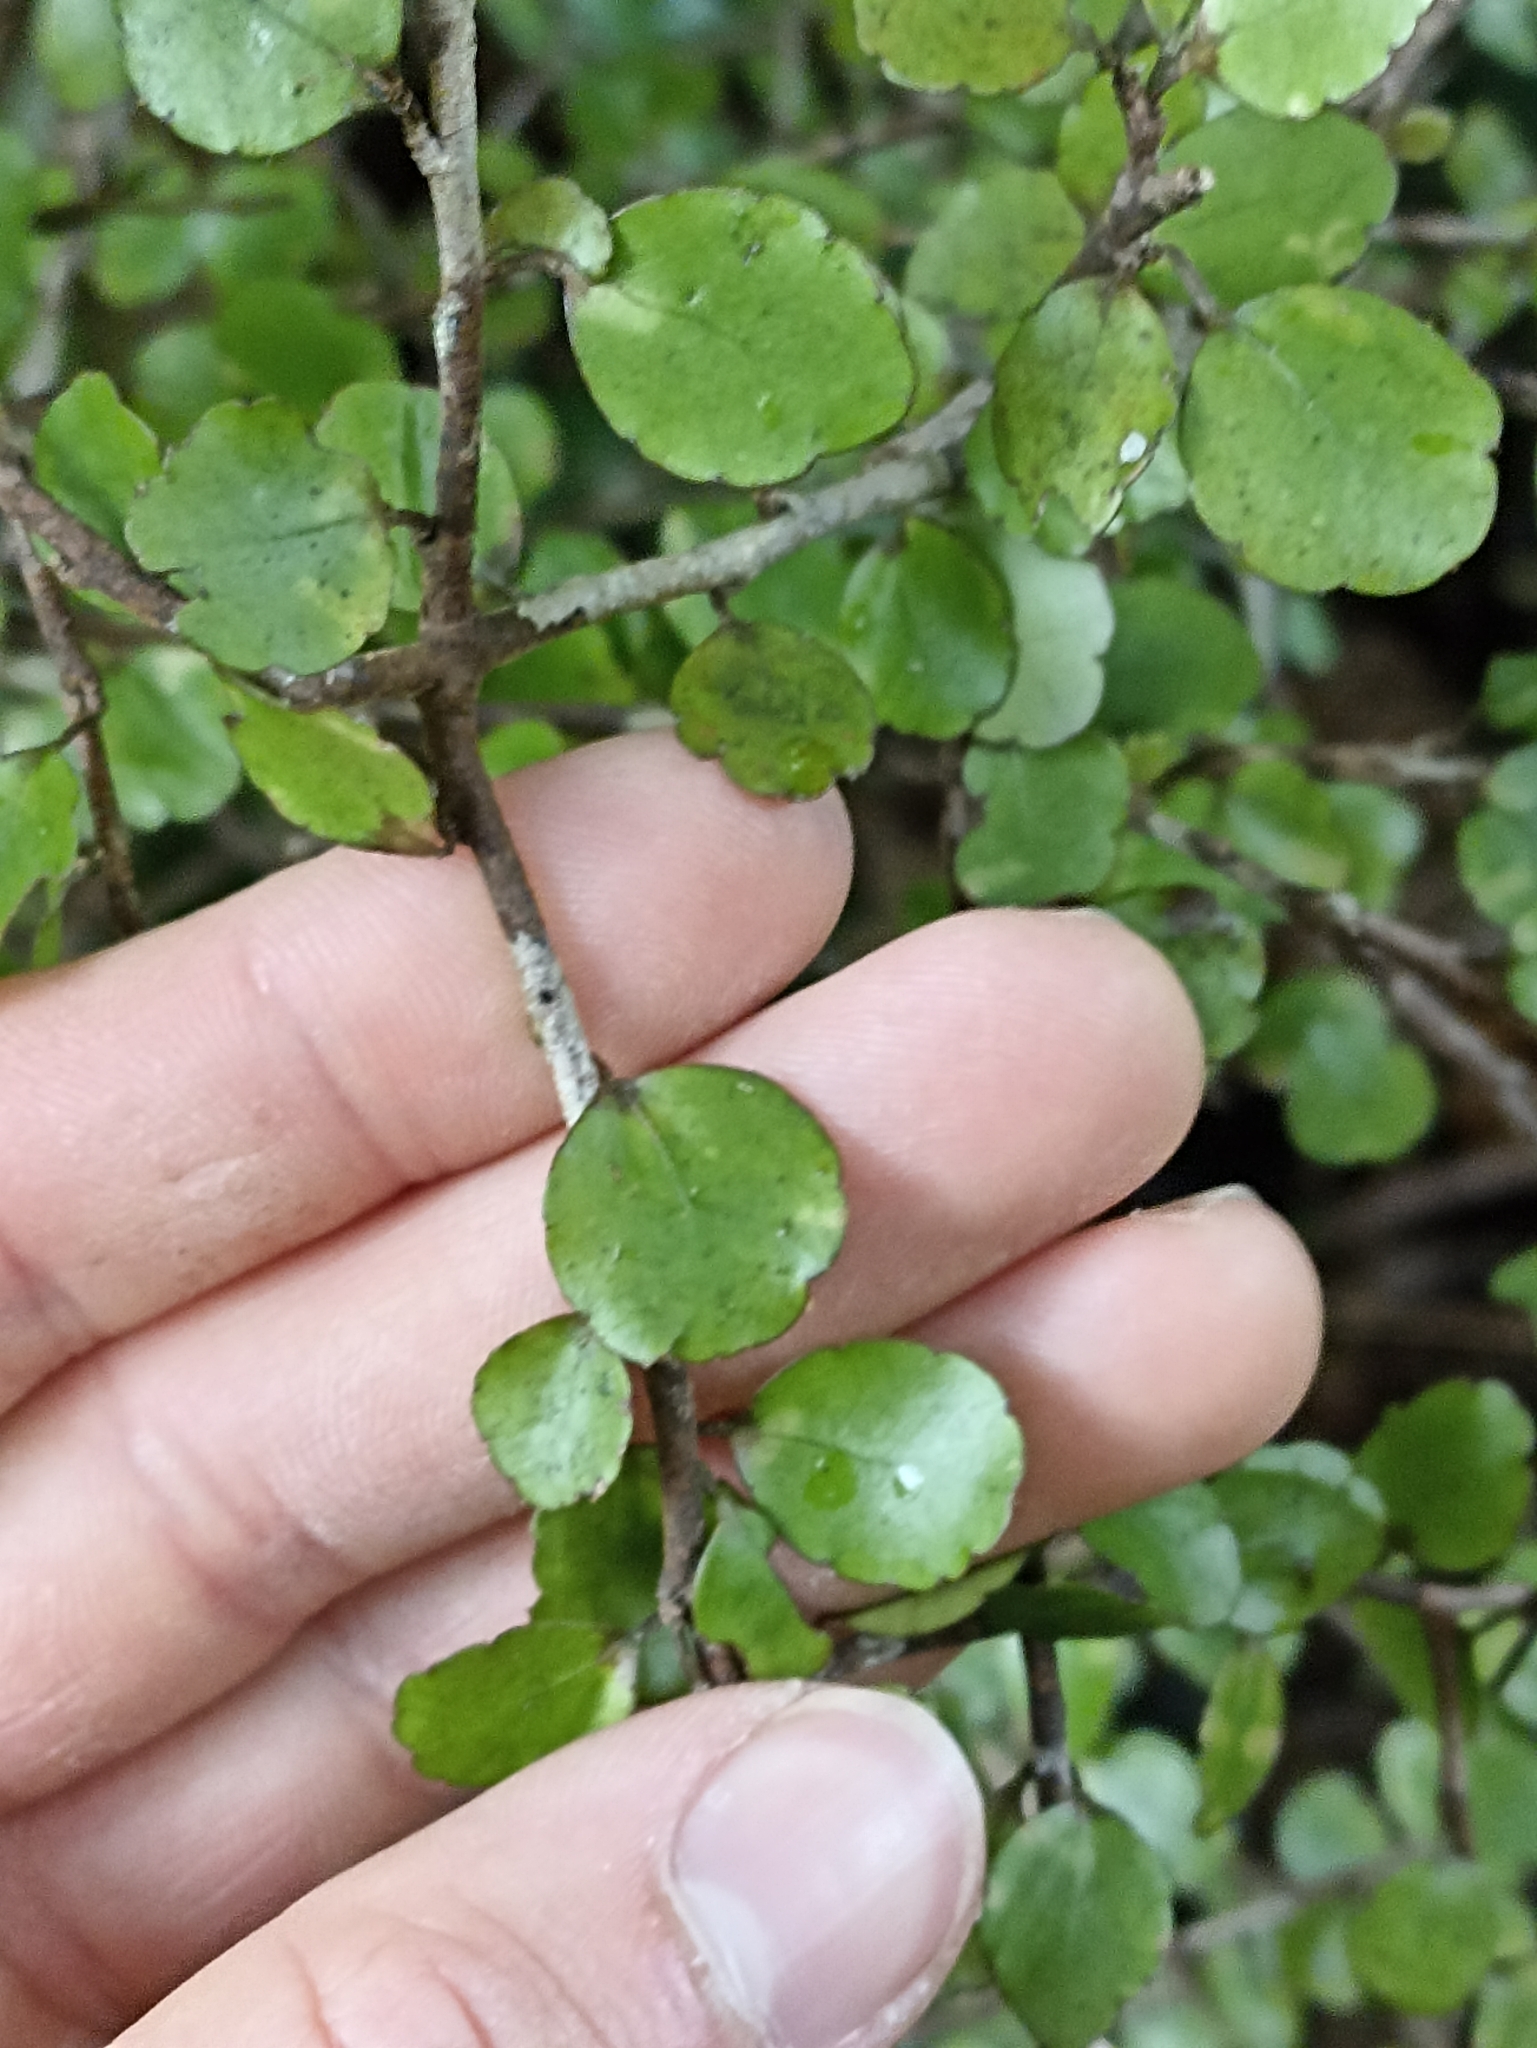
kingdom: Plantae
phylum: Tracheophyta
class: Magnoliopsida
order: Apiales
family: Araliaceae
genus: Raukaua
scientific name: Raukaua anomalus
